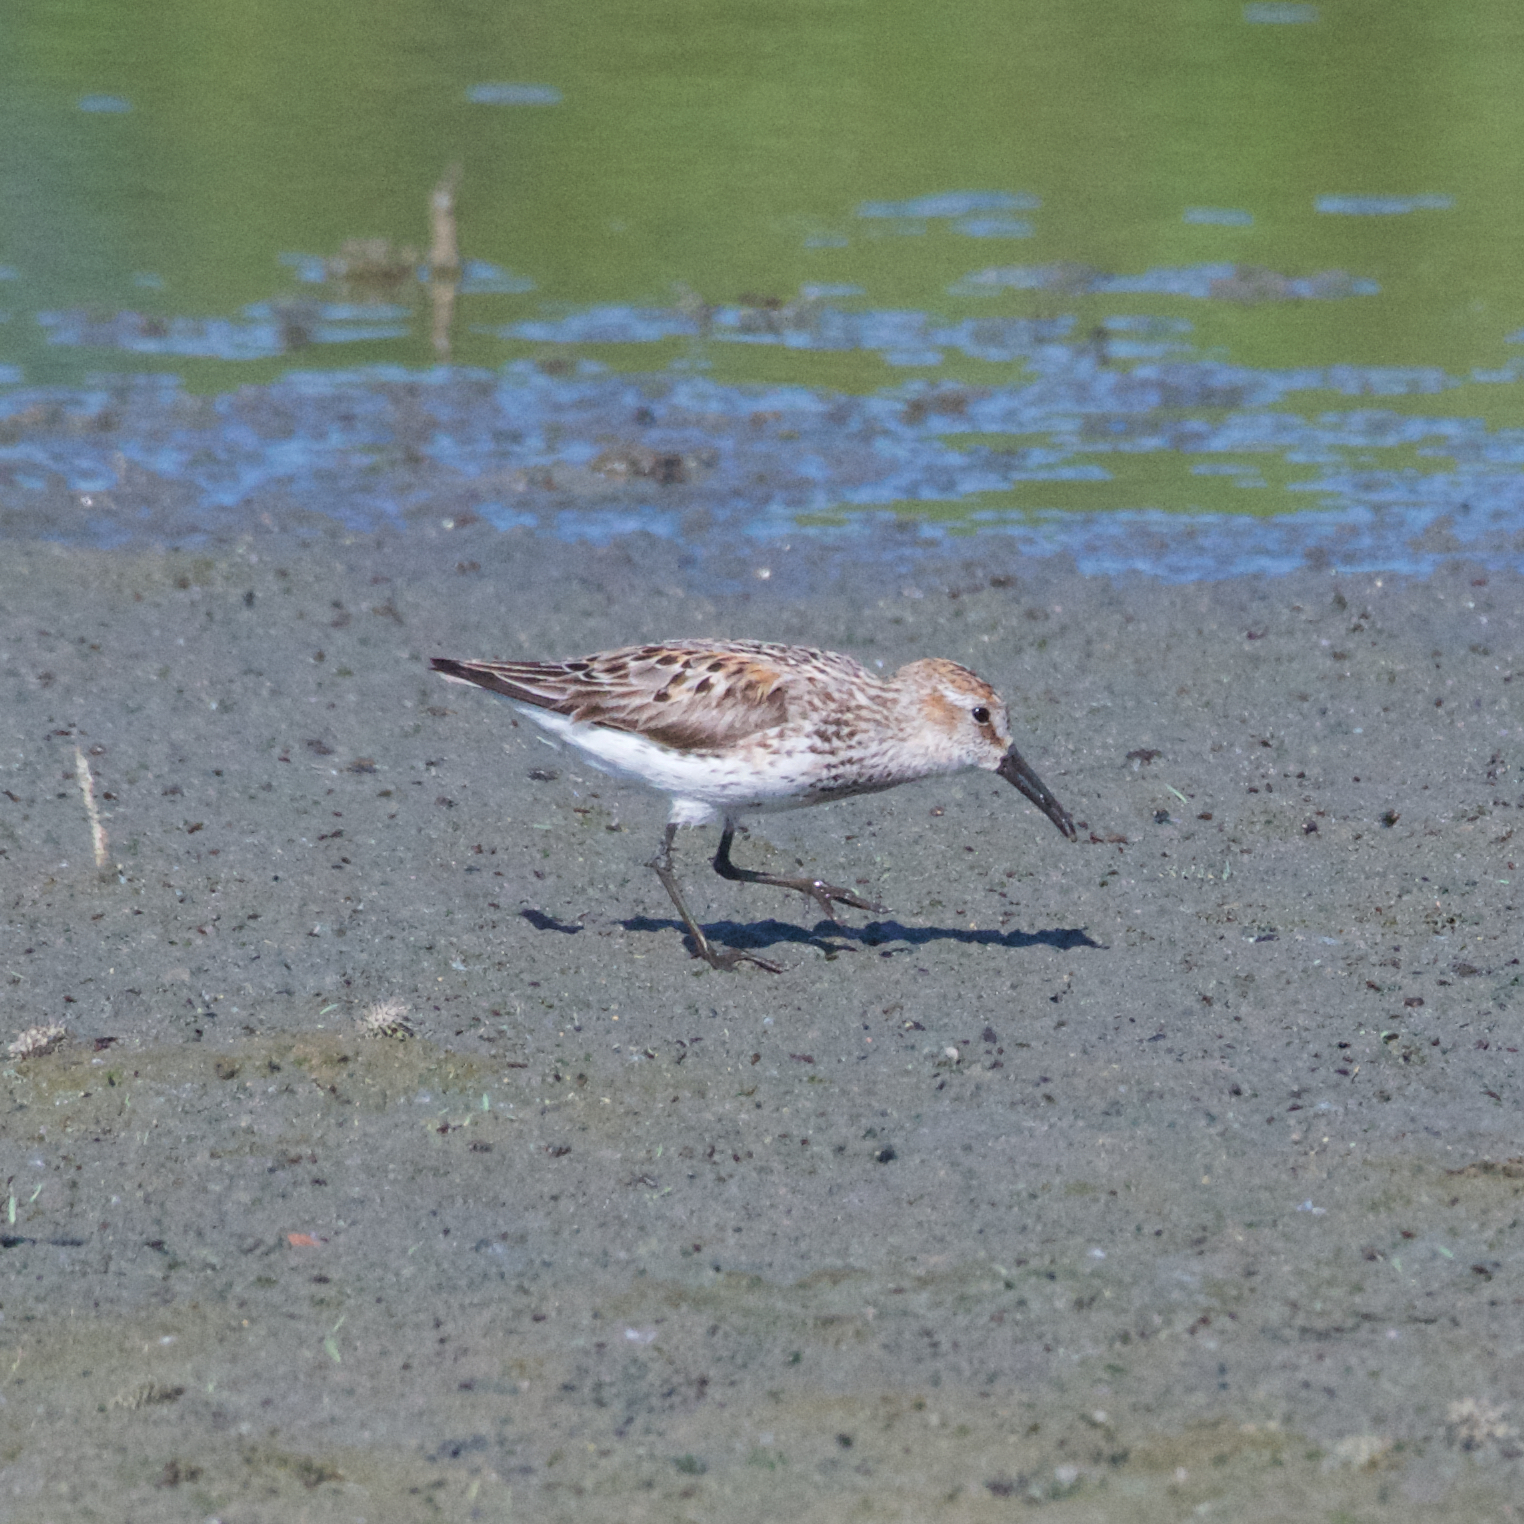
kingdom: Animalia
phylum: Chordata
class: Aves
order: Charadriiformes
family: Scolopacidae
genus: Calidris
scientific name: Calidris mauri
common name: Western sandpiper
